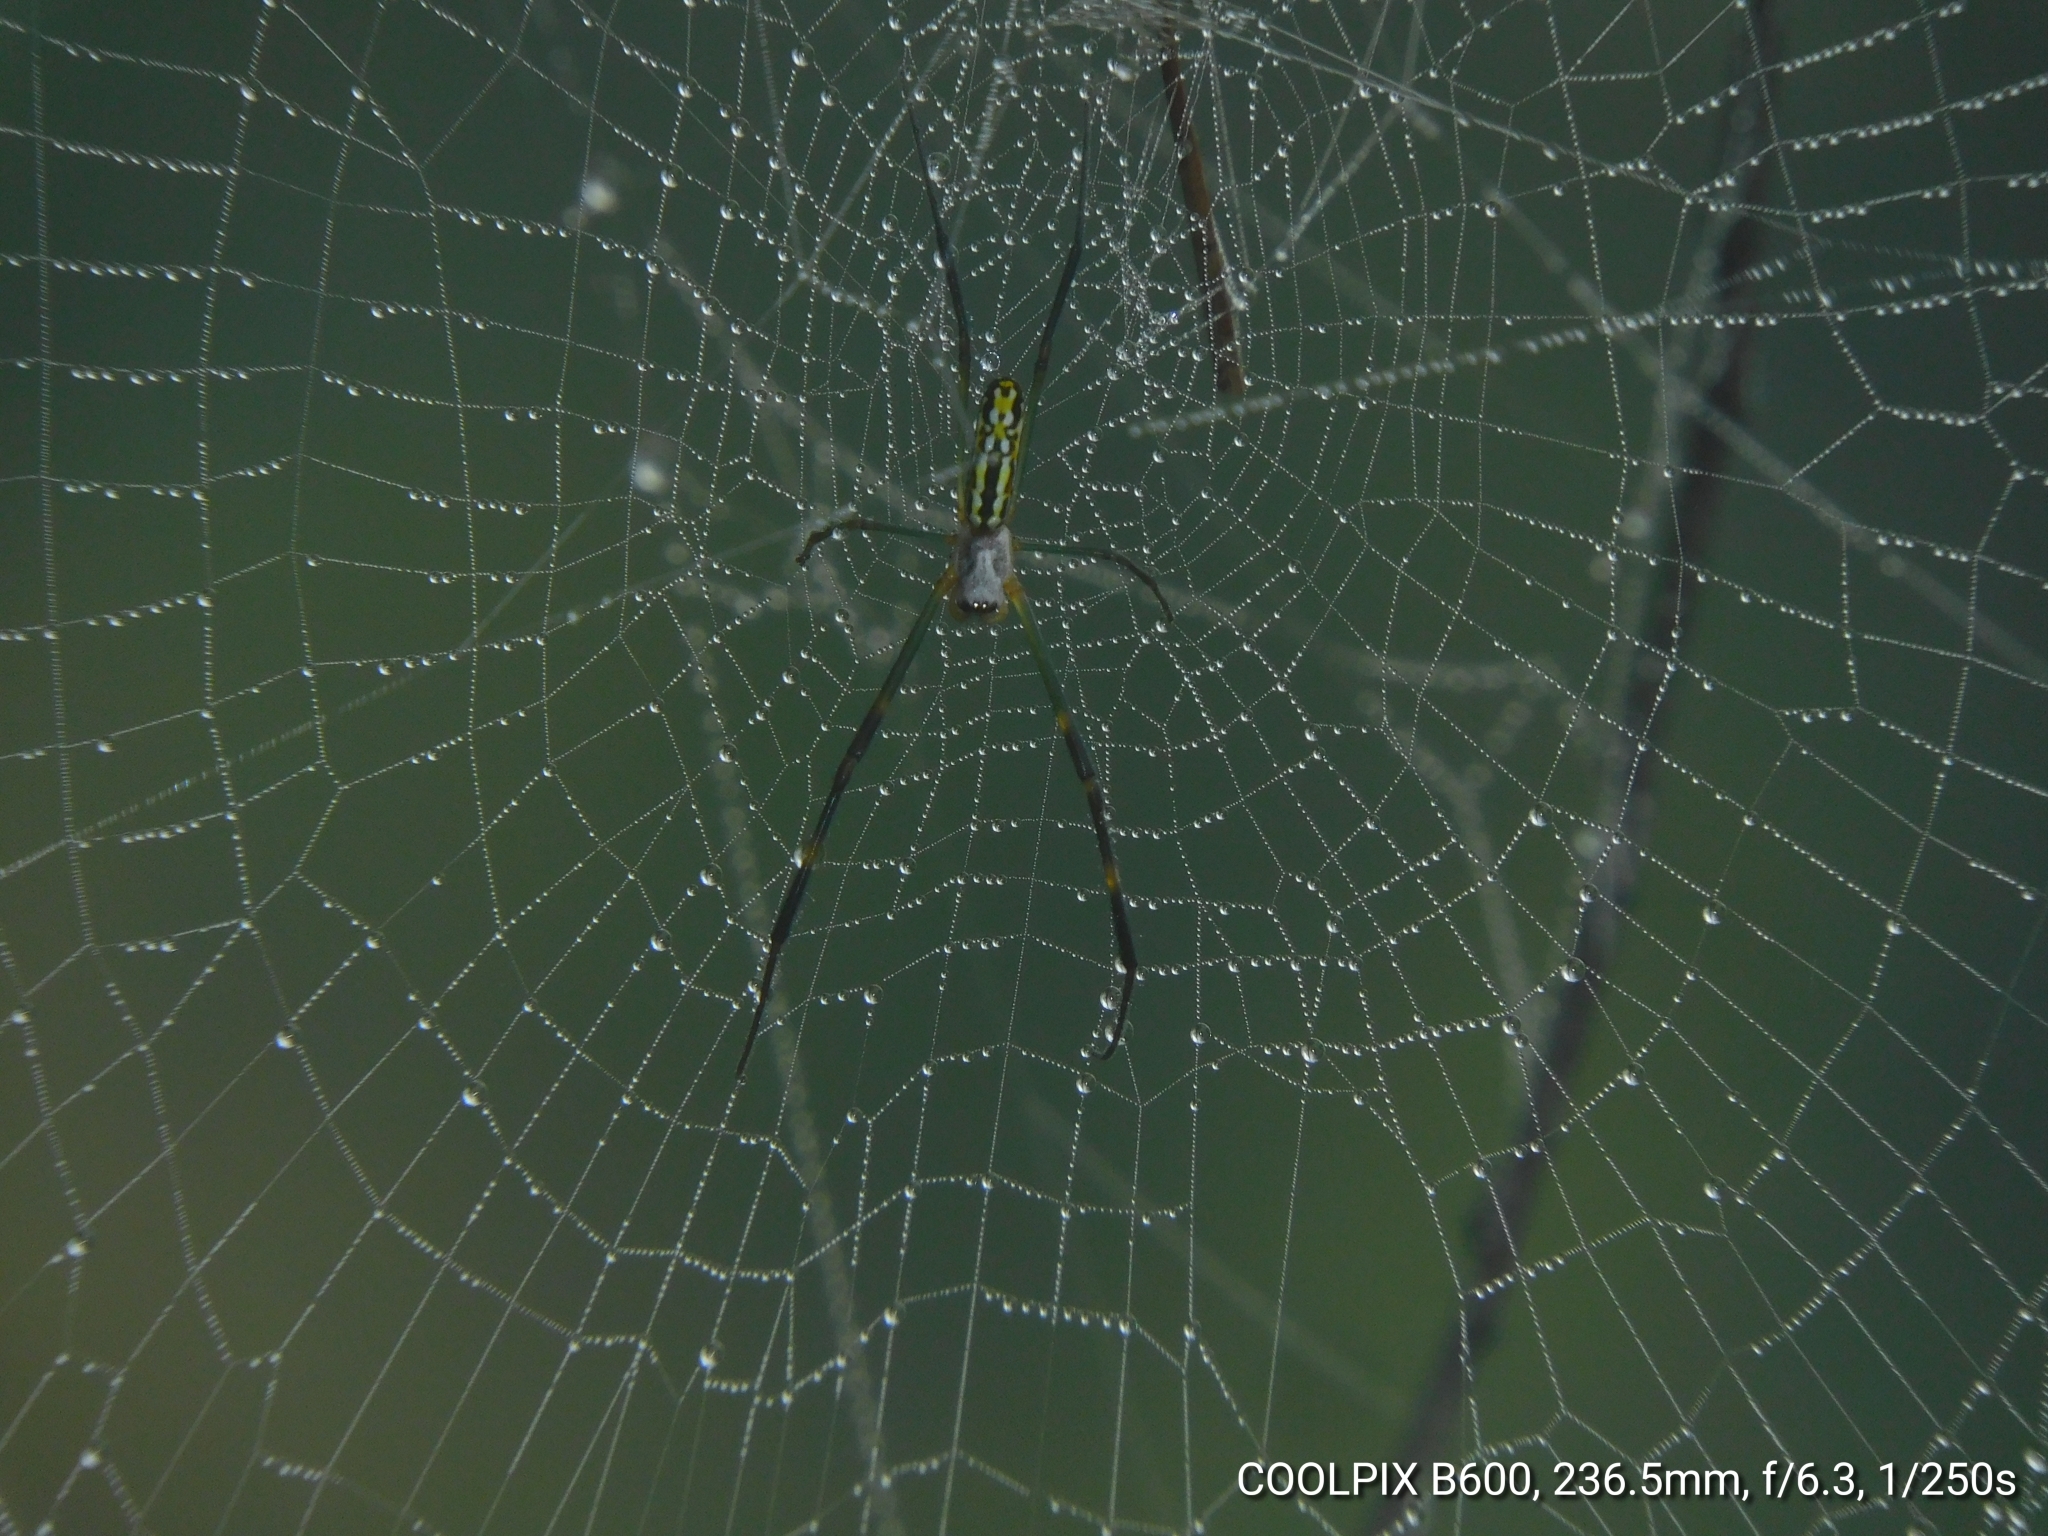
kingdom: Animalia
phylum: Arthropoda
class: Arachnida
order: Araneae
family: Araneidae
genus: Trichonephila
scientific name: Trichonephila clavata
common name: Jorō spider
